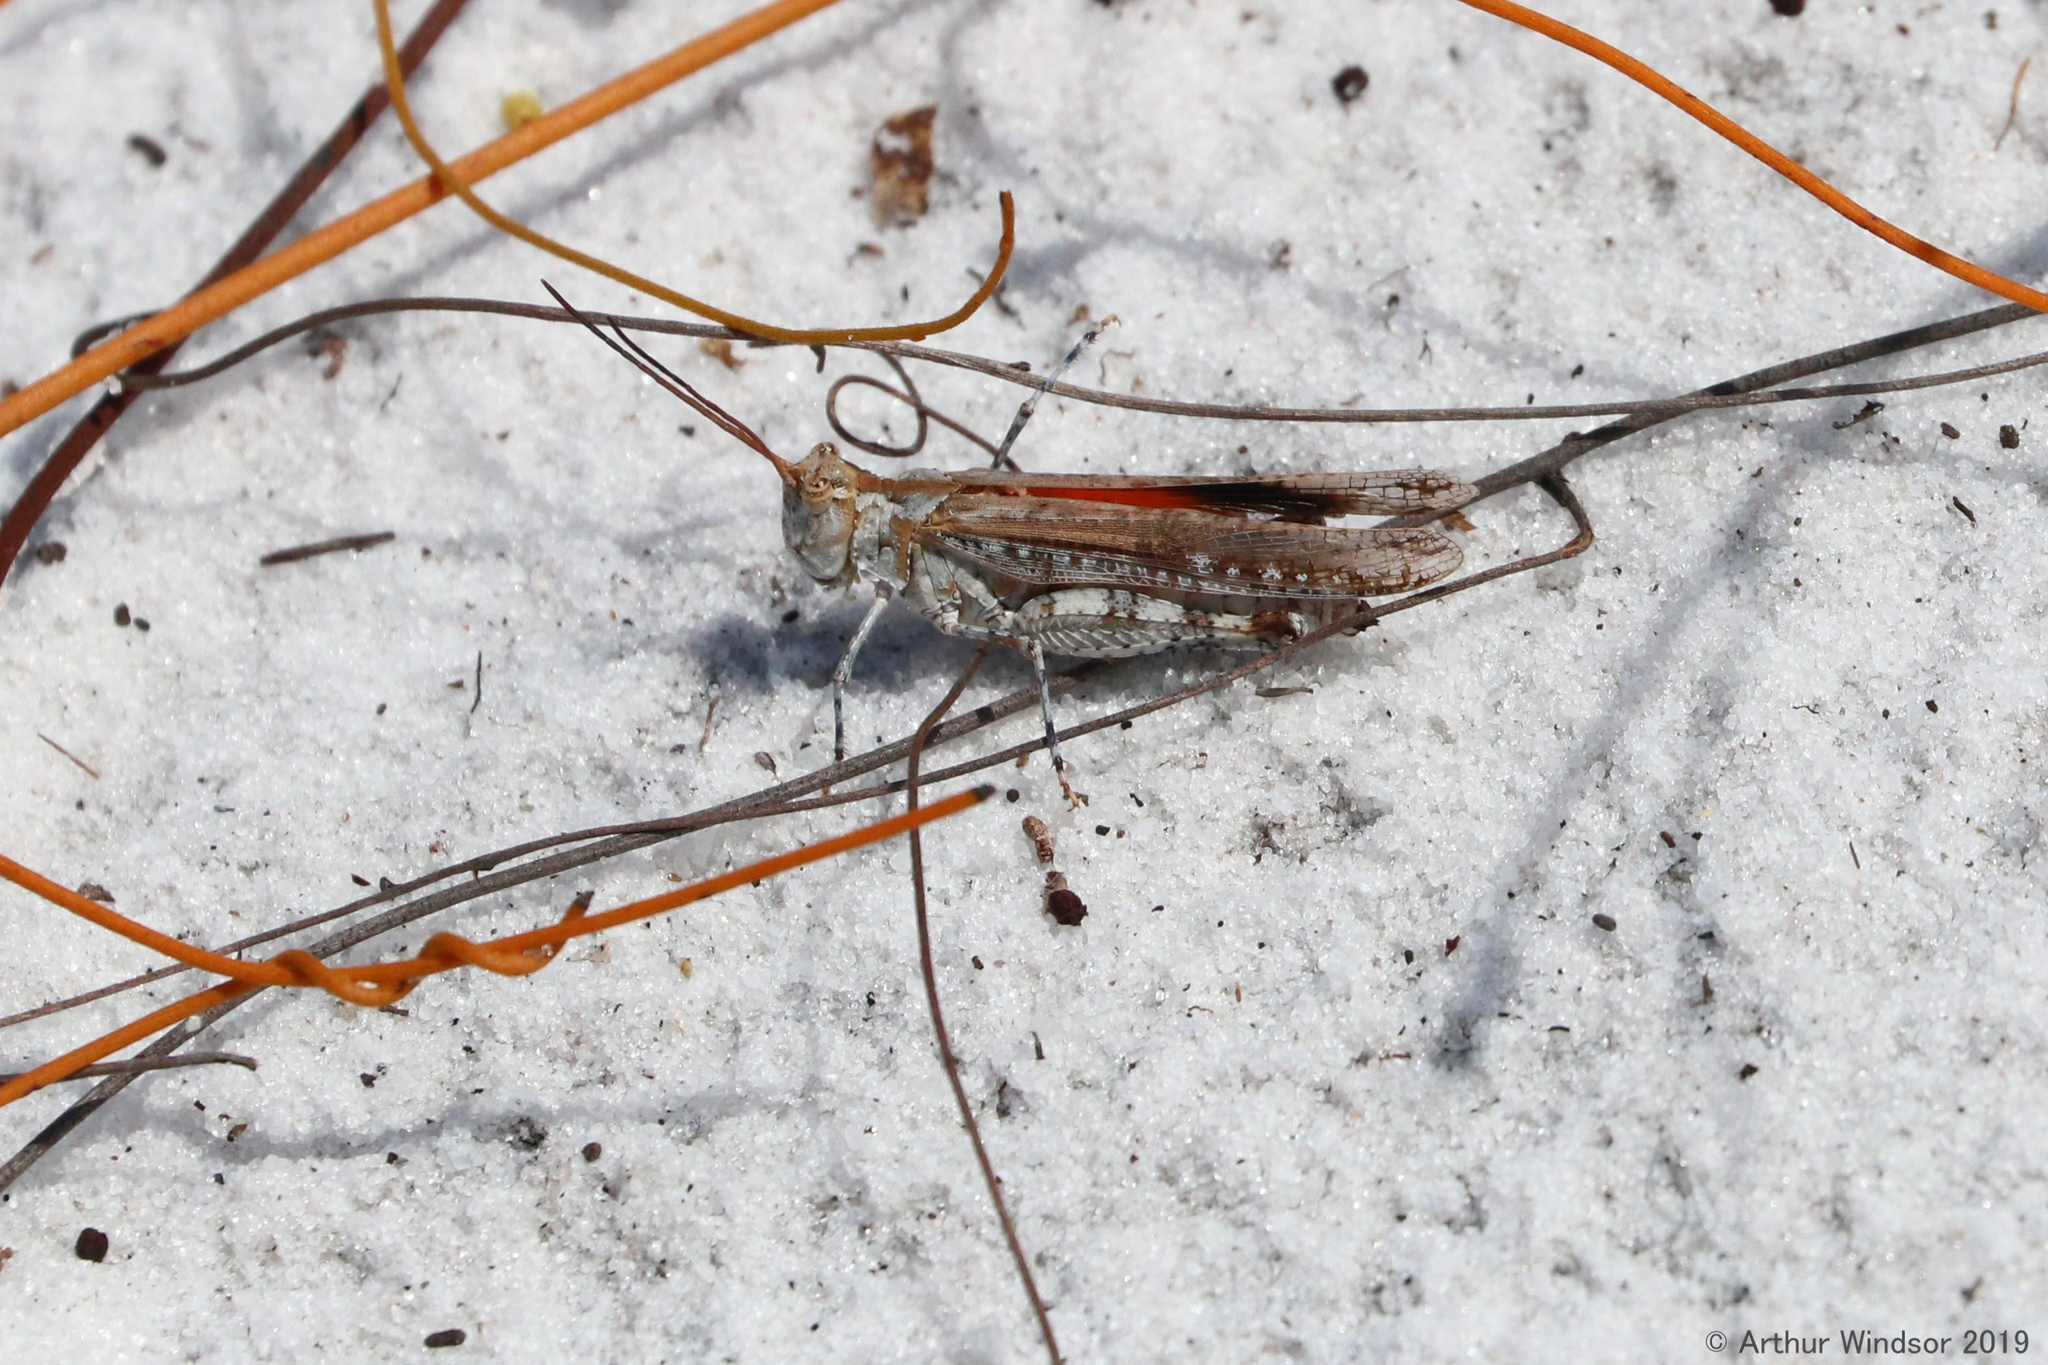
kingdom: Animalia
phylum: Arthropoda
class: Insecta
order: Orthoptera
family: Acrididae
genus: Psinidia
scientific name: Psinidia fenestralis
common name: Long-horned locust
